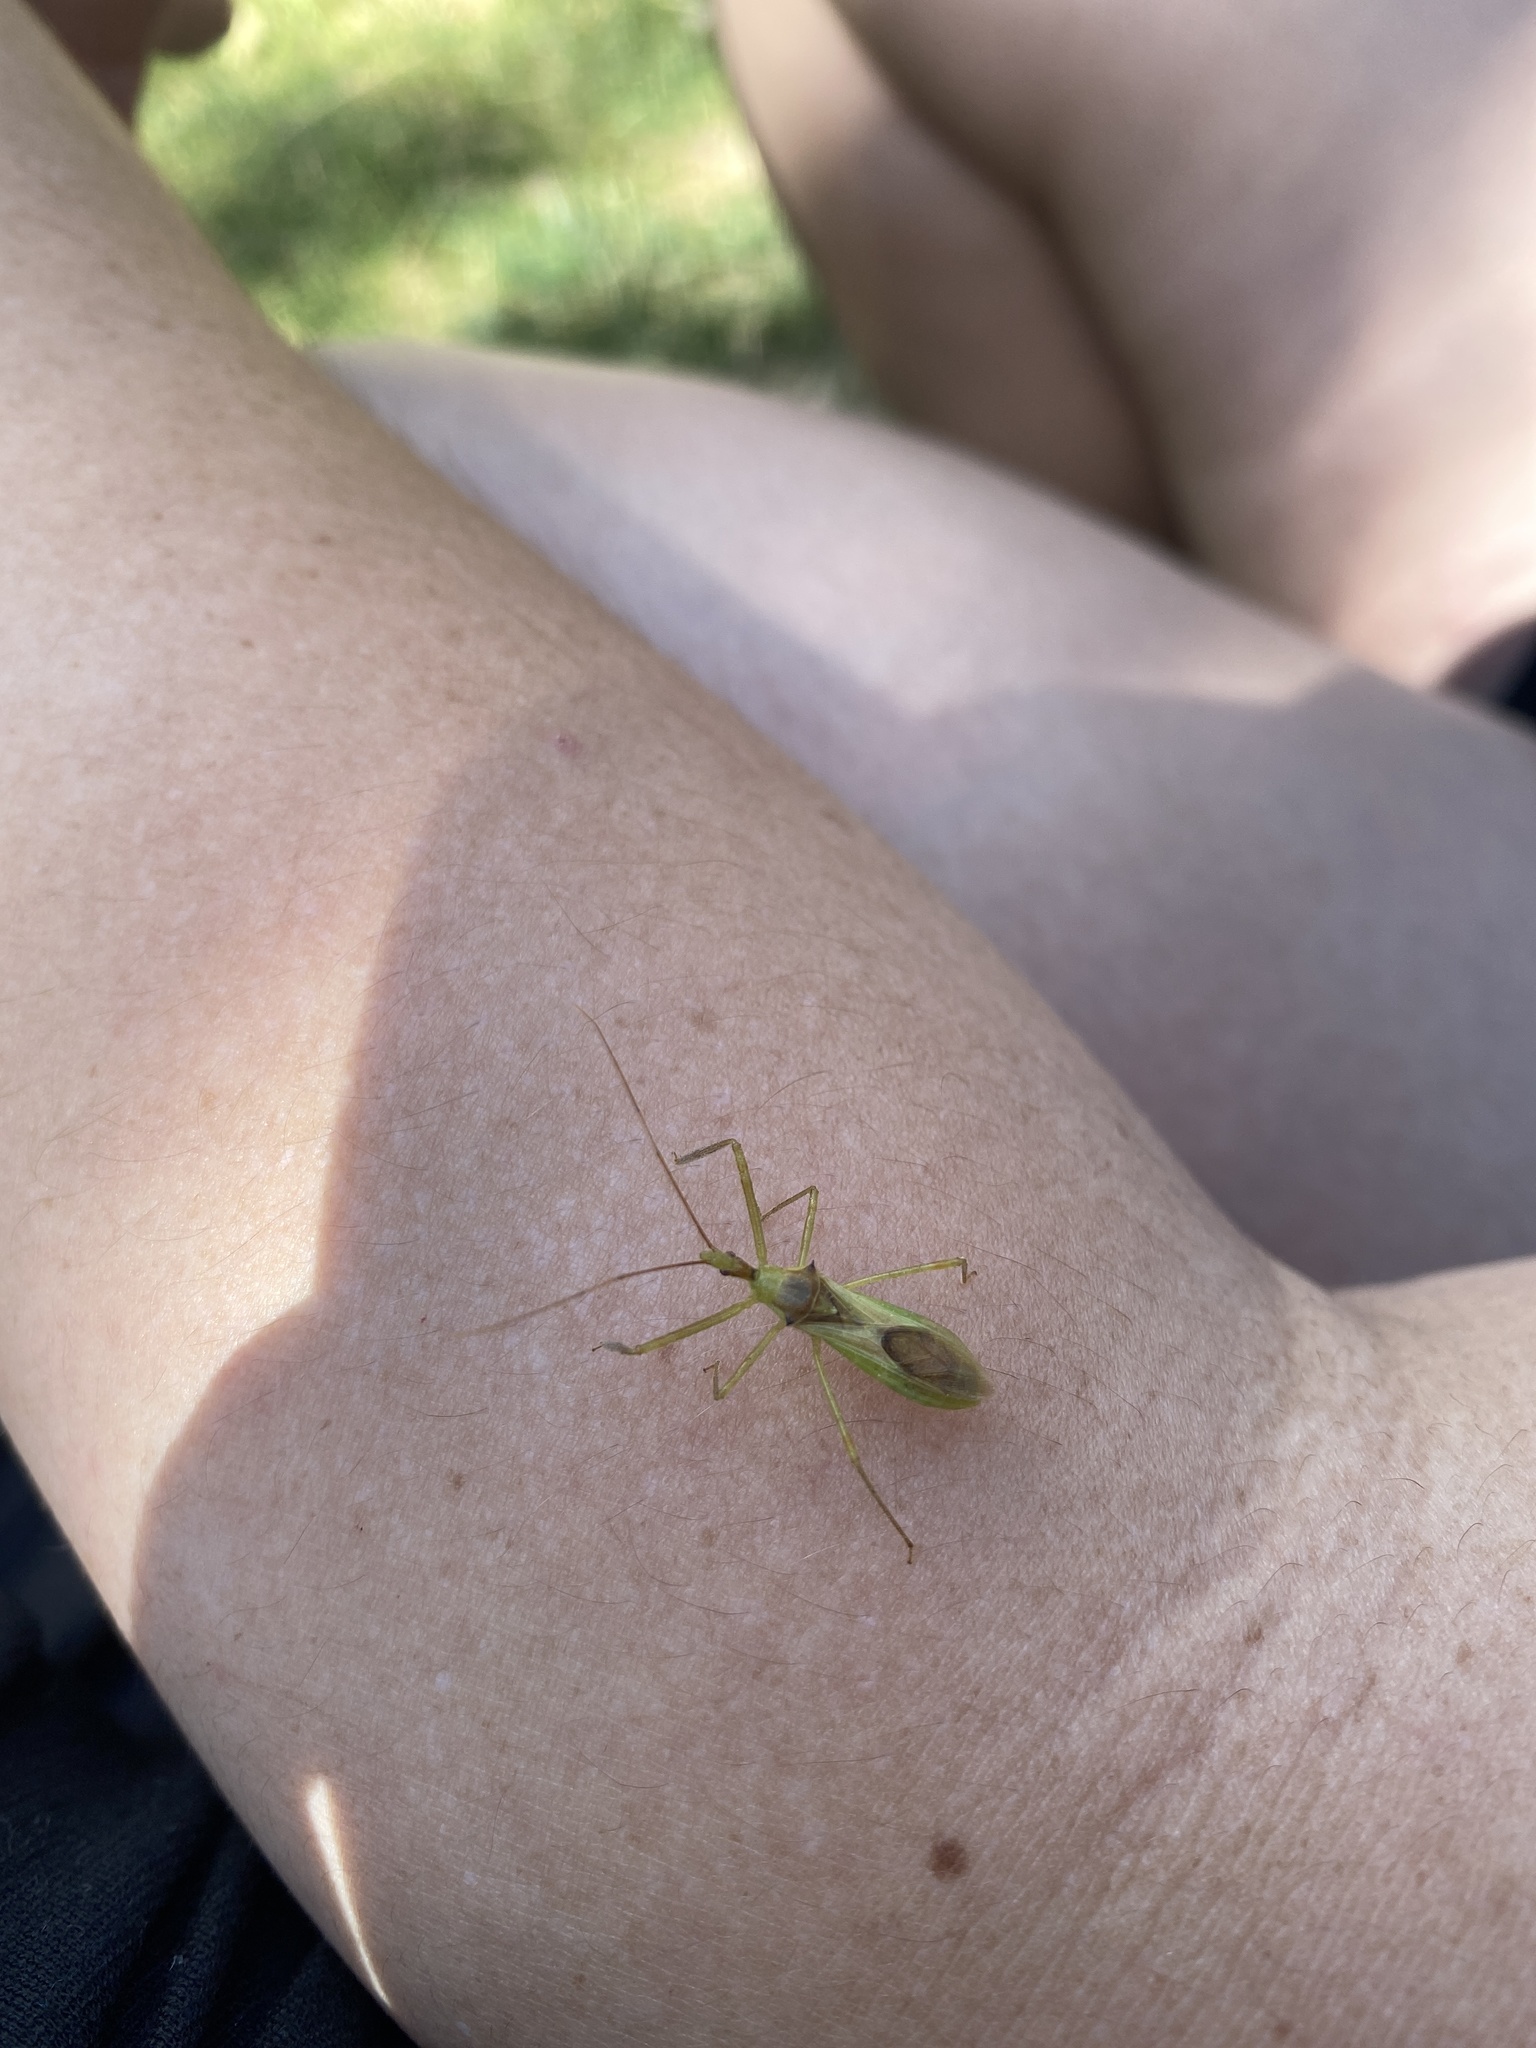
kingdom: Animalia
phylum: Arthropoda
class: Insecta
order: Hemiptera
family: Reduviidae
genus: Zelus
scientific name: Zelus luridus
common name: Pale green assassin bug
